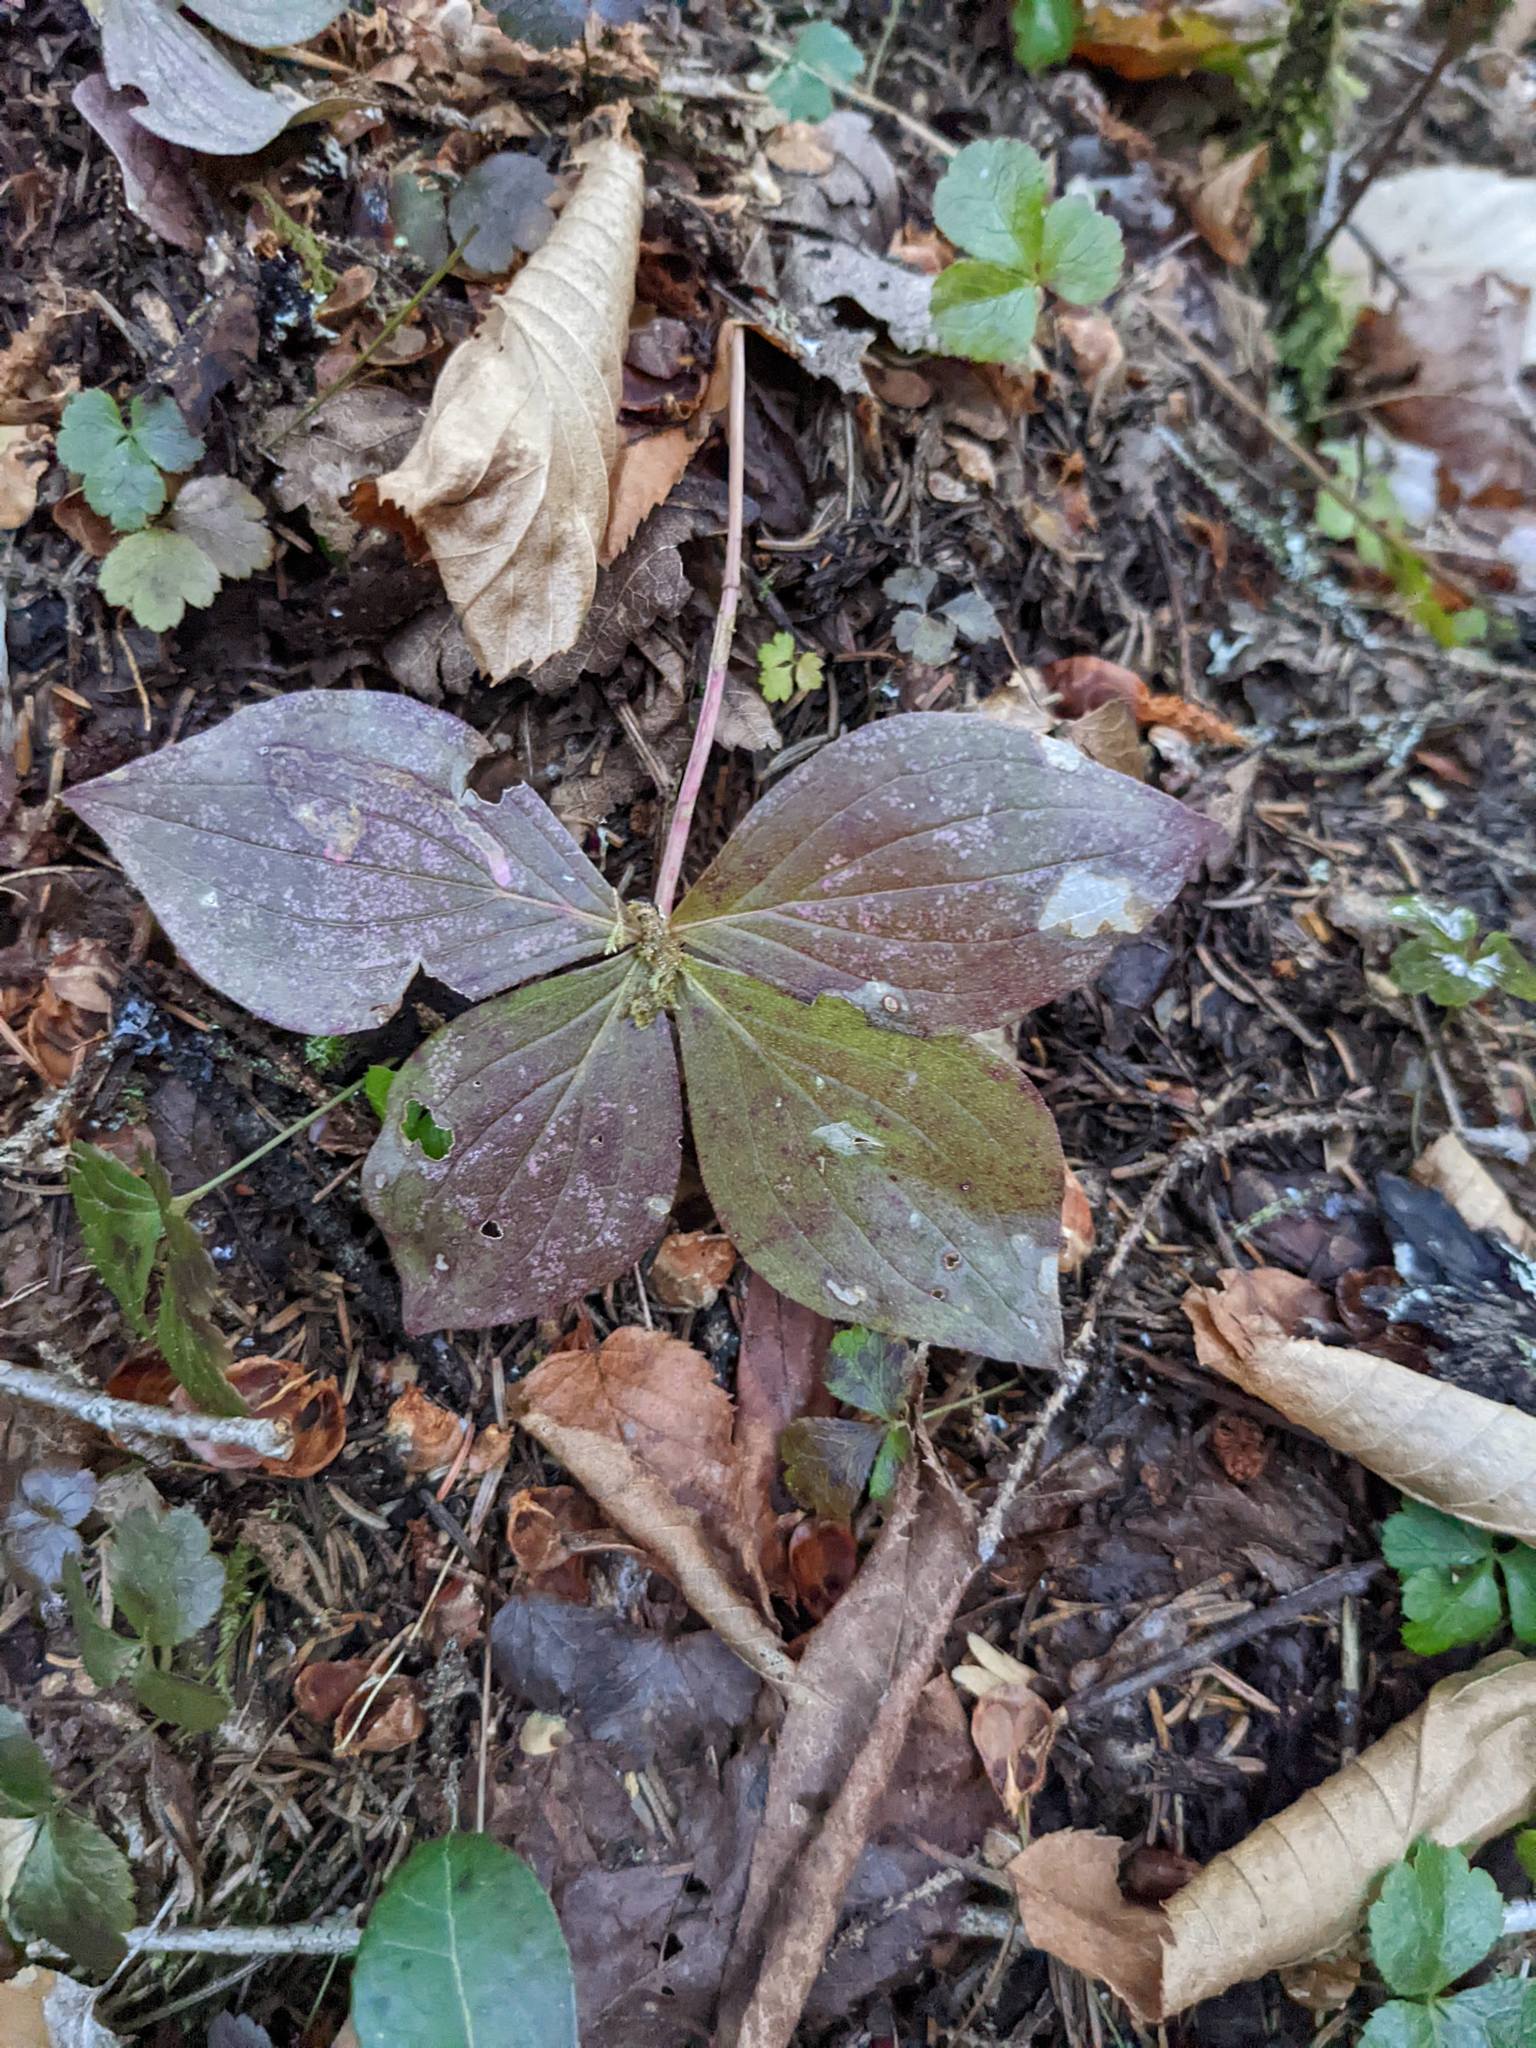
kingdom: Plantae
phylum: Tracheophyta
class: Magnoliopsida
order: Cornales
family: Cornaceae
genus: Cornus
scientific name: Cornus canadensis
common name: Creeping dogwood
